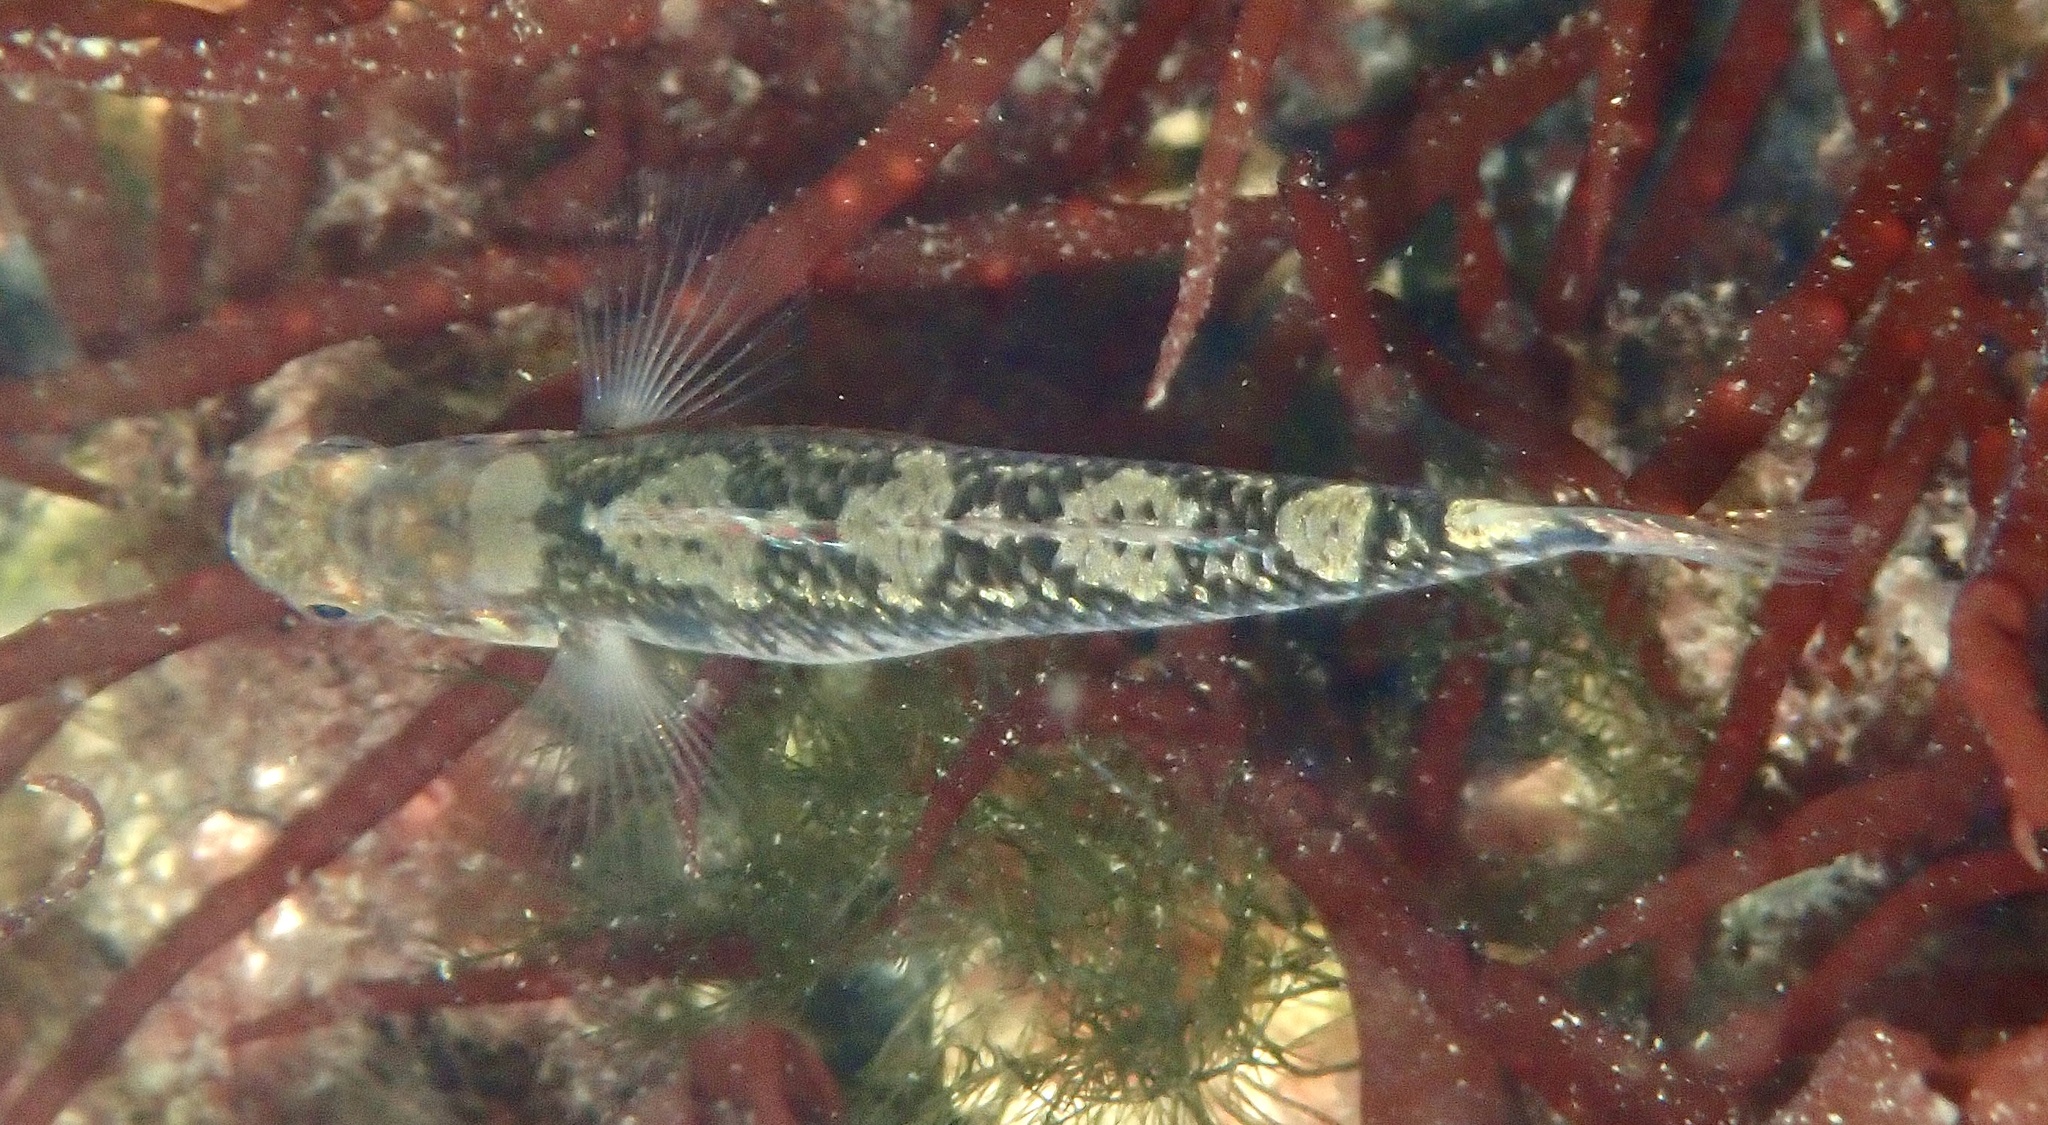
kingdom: Animalia
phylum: Chordata
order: Perciformes
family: Gobiidae
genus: Gobiusculus
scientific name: Gobiusculus flavescens
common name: Two-spotted goby
